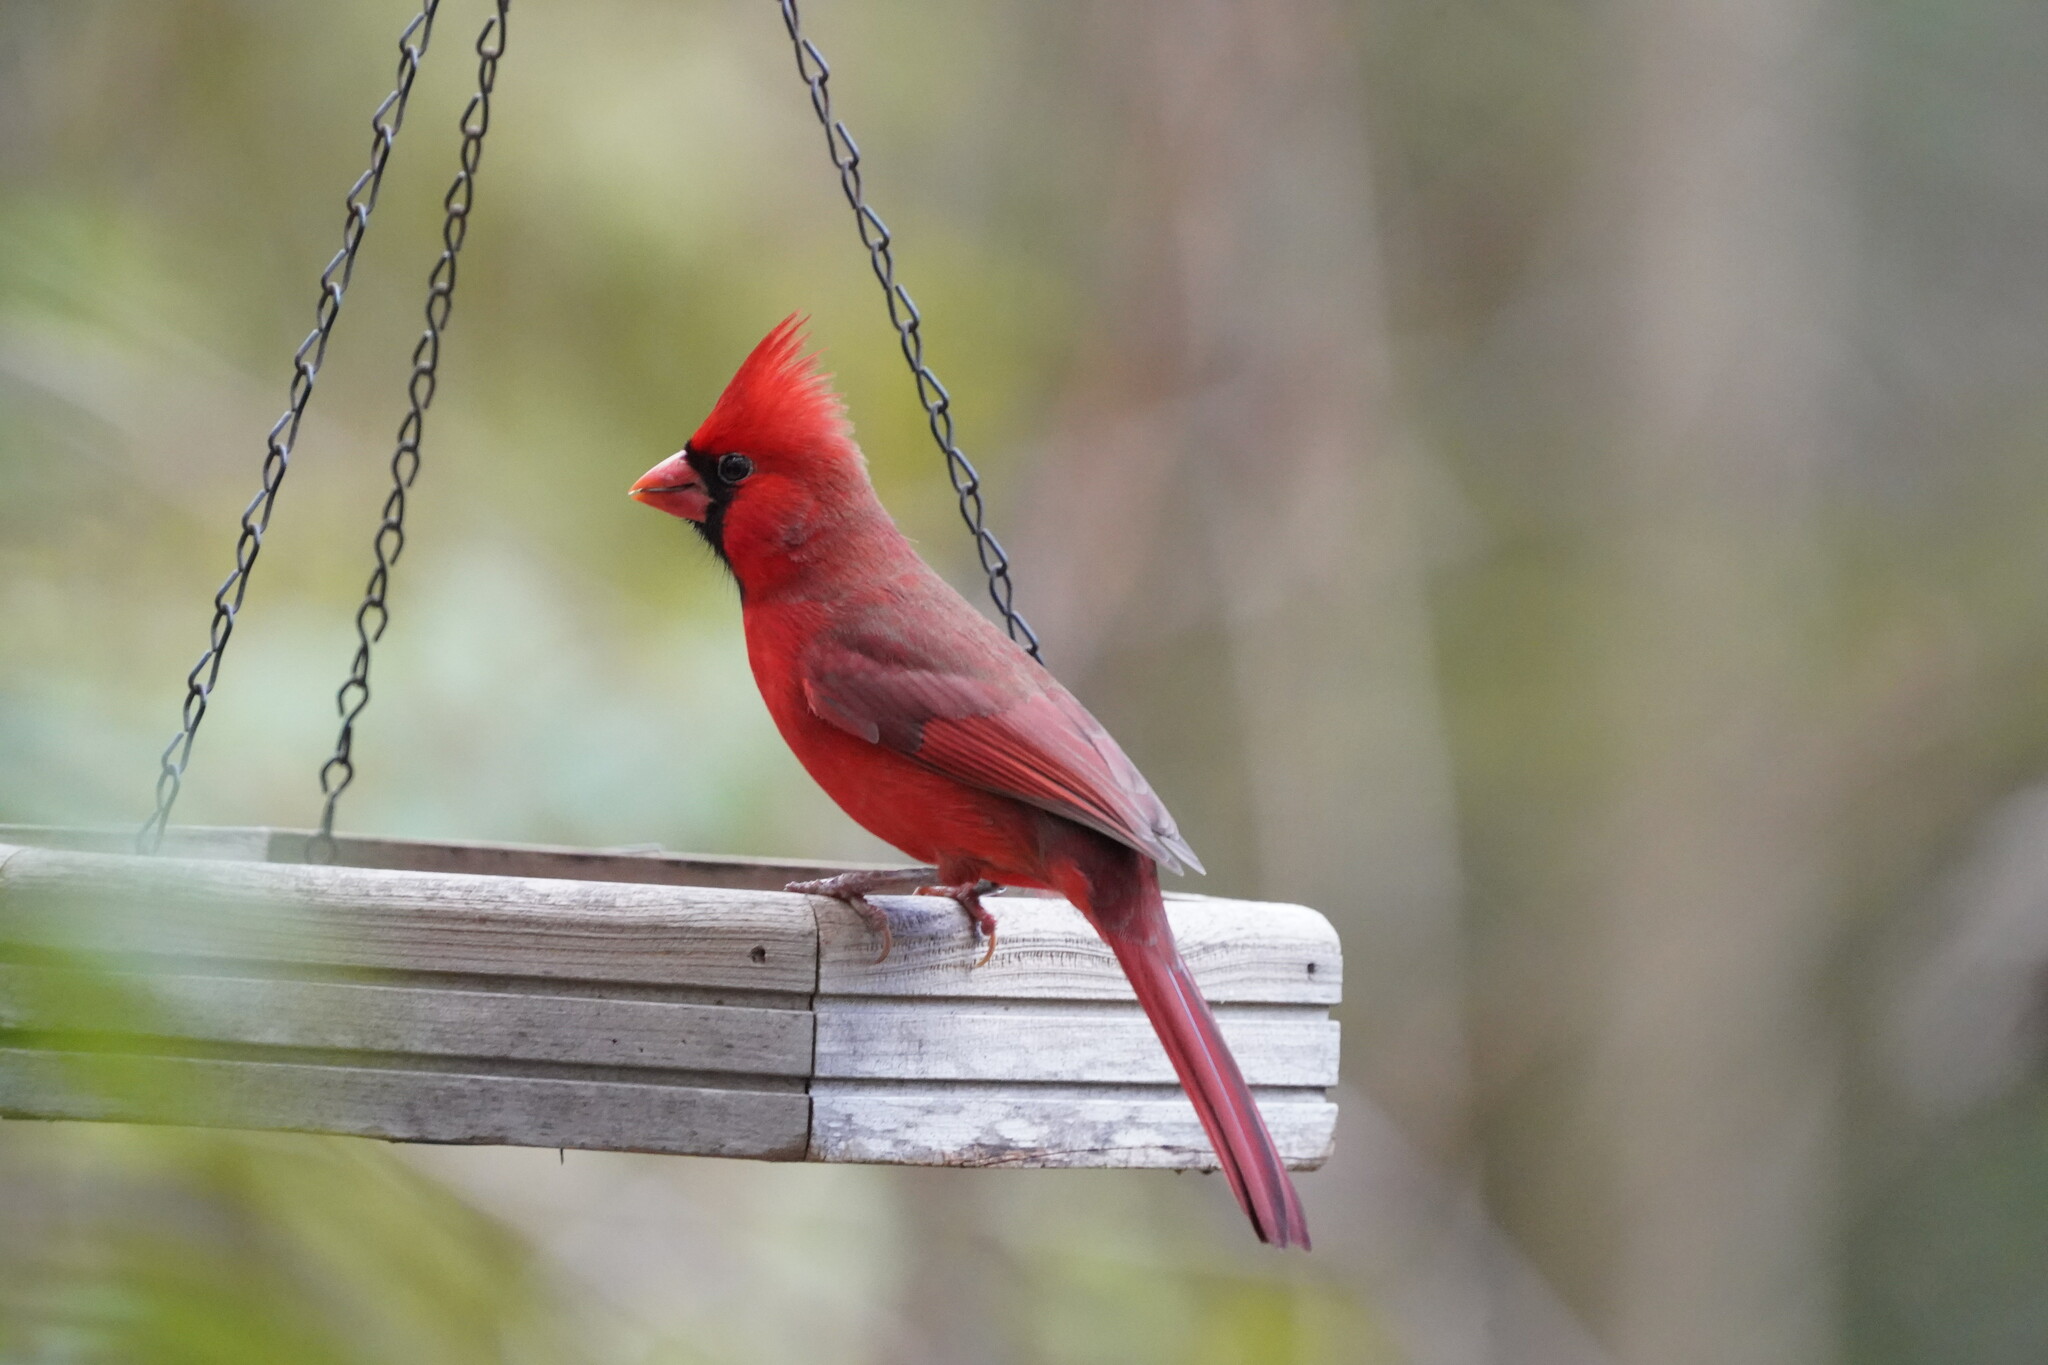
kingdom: Animalia
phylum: Chordata
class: Aves
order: Passeriformes
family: Cardinalidae
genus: Cardinalis
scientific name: Cardinalis cardinalis
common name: Northern cardinal
